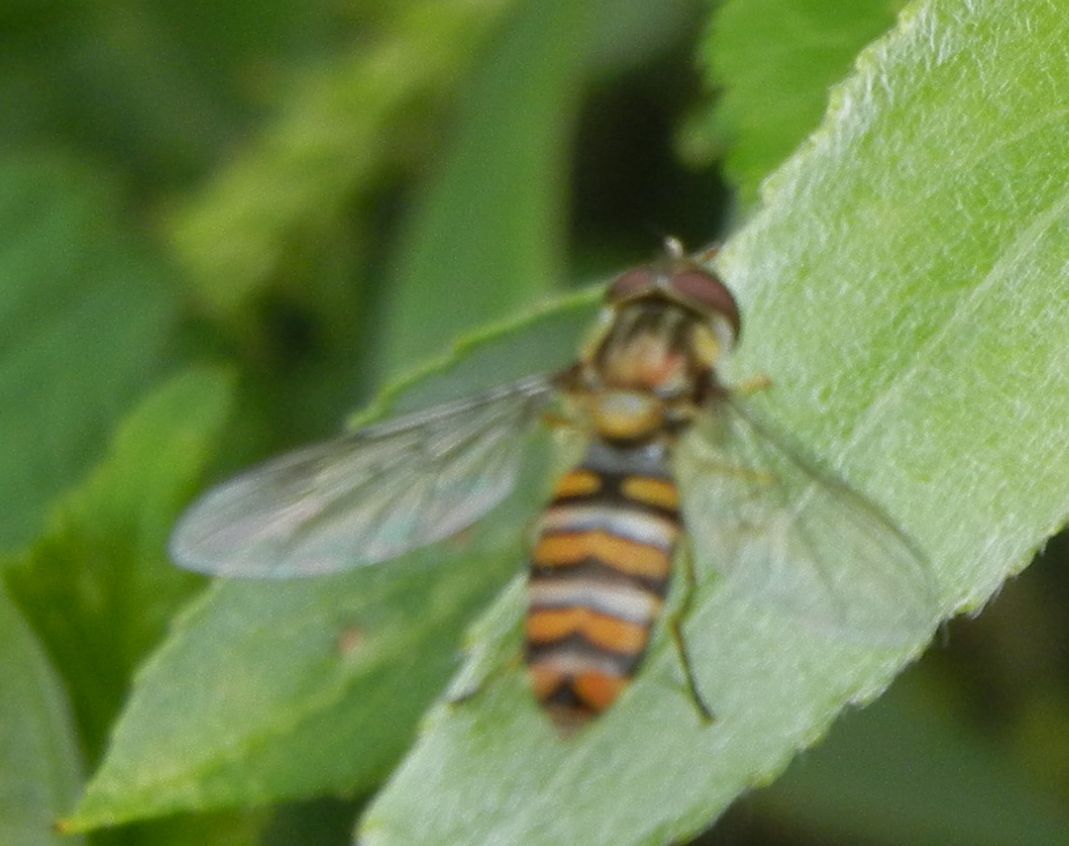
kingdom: Animalia
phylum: Arthropoda
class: Insecta
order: Diptera
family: Syrphidae
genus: Episyrphus
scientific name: Episyrphus balteatus
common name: Marmalade hoverfly
